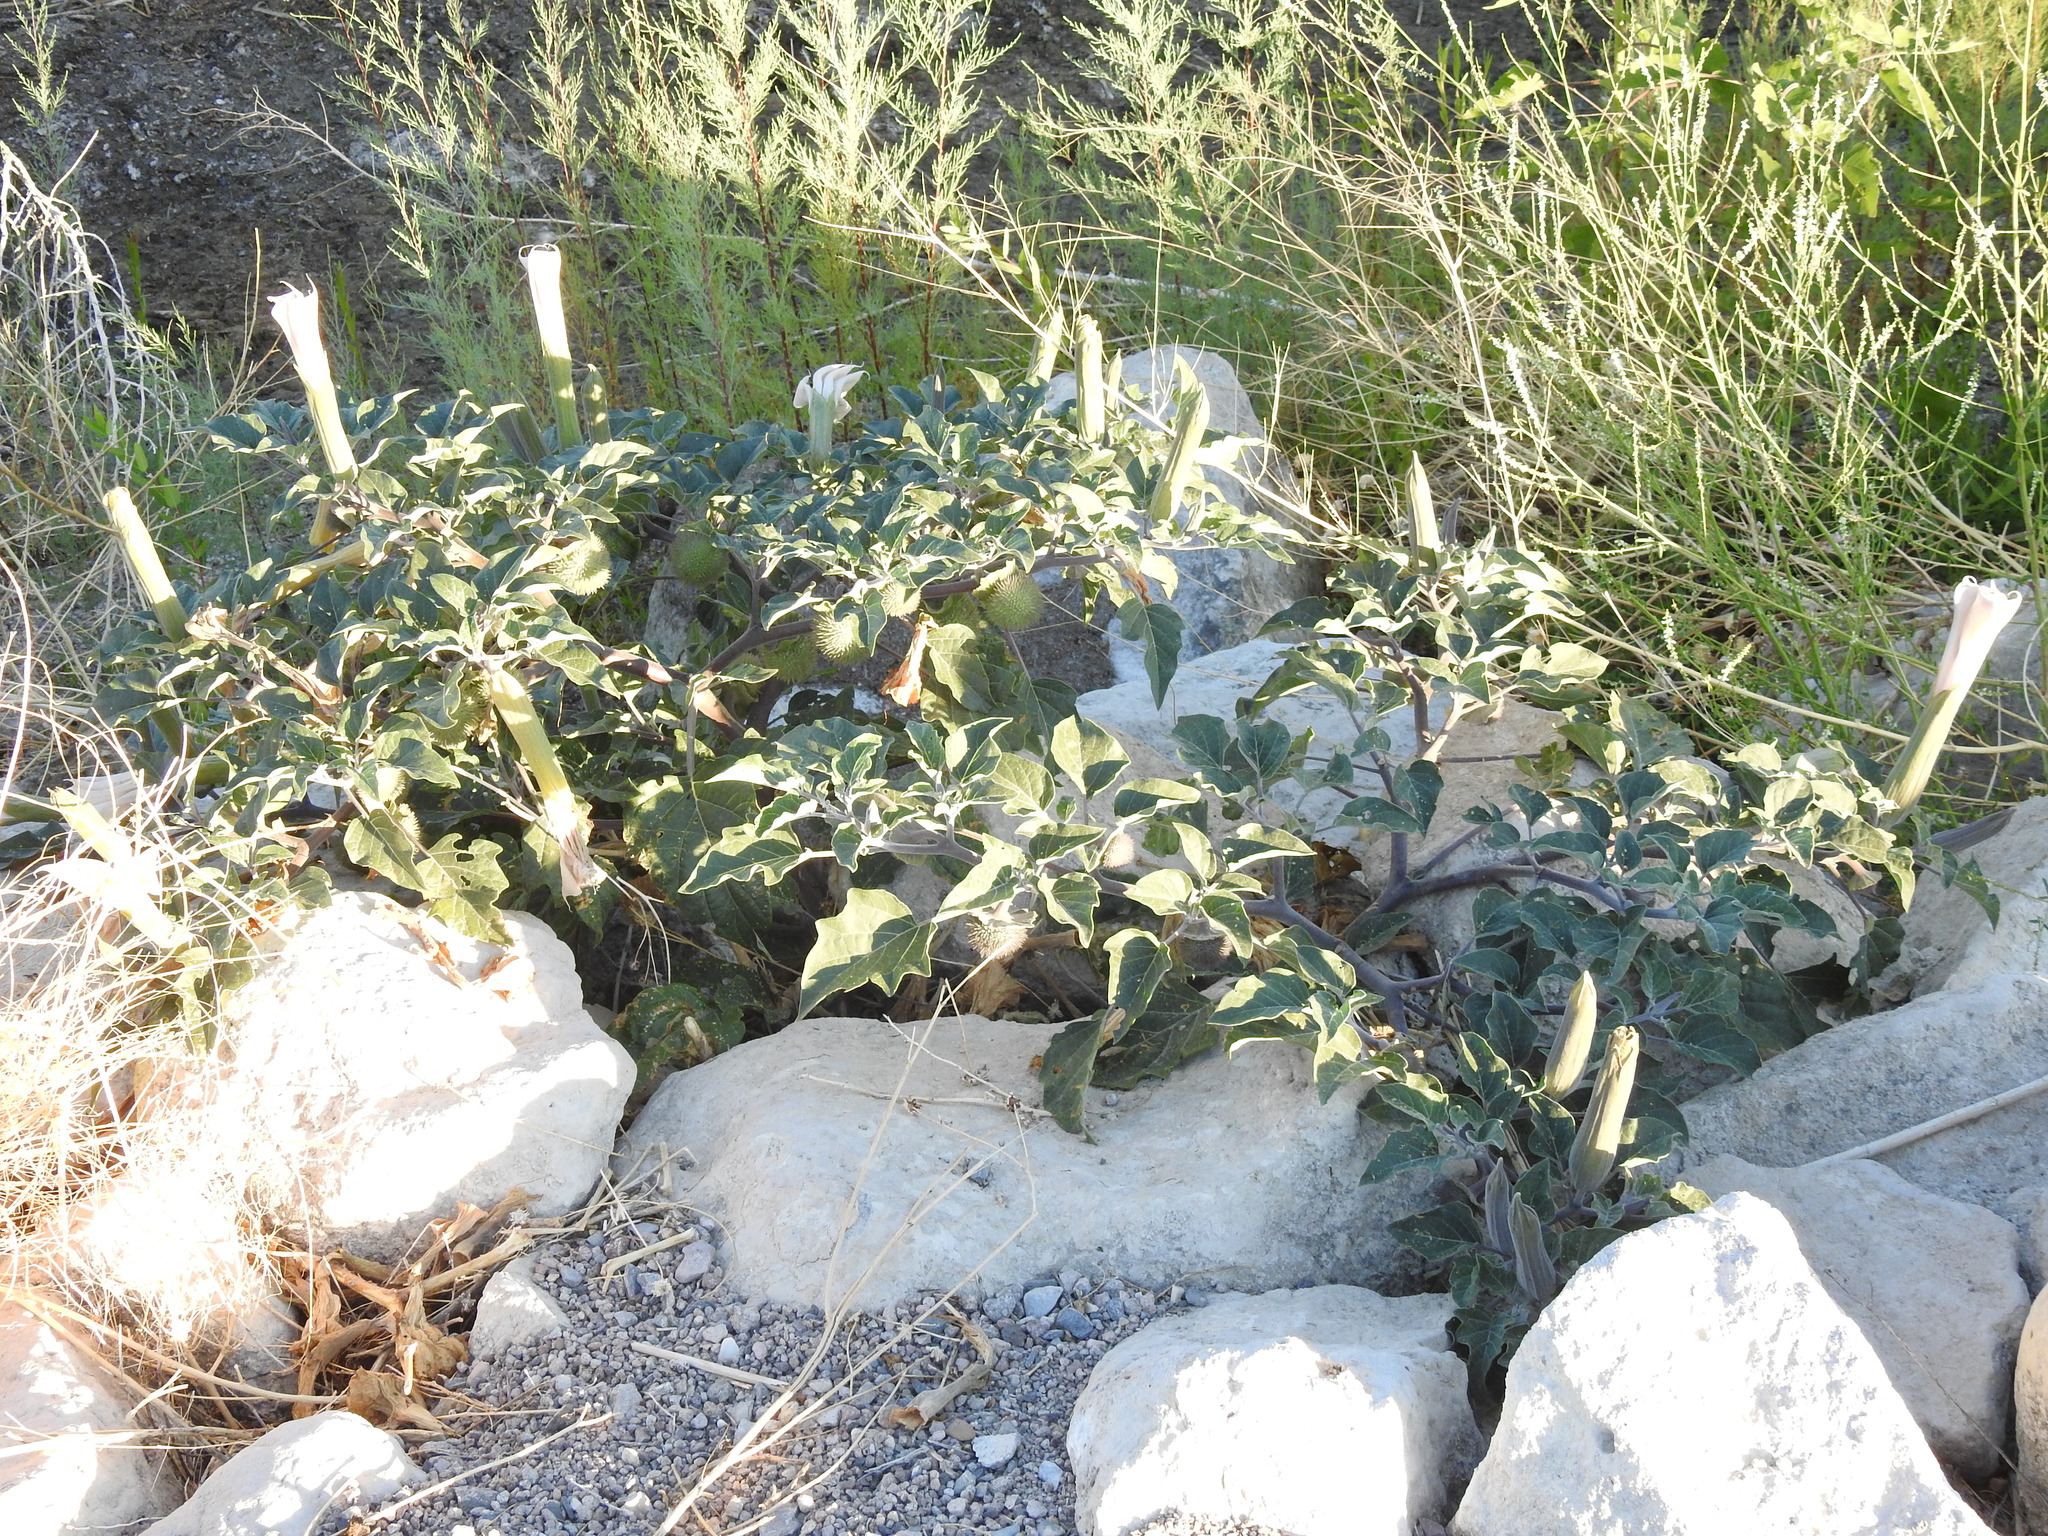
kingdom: Plantae
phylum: Tracheophyta
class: Magnoliopsida
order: Solanales
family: Solanaceae
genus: Datura
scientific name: Datura wrightii
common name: Sacred thorn-apple
